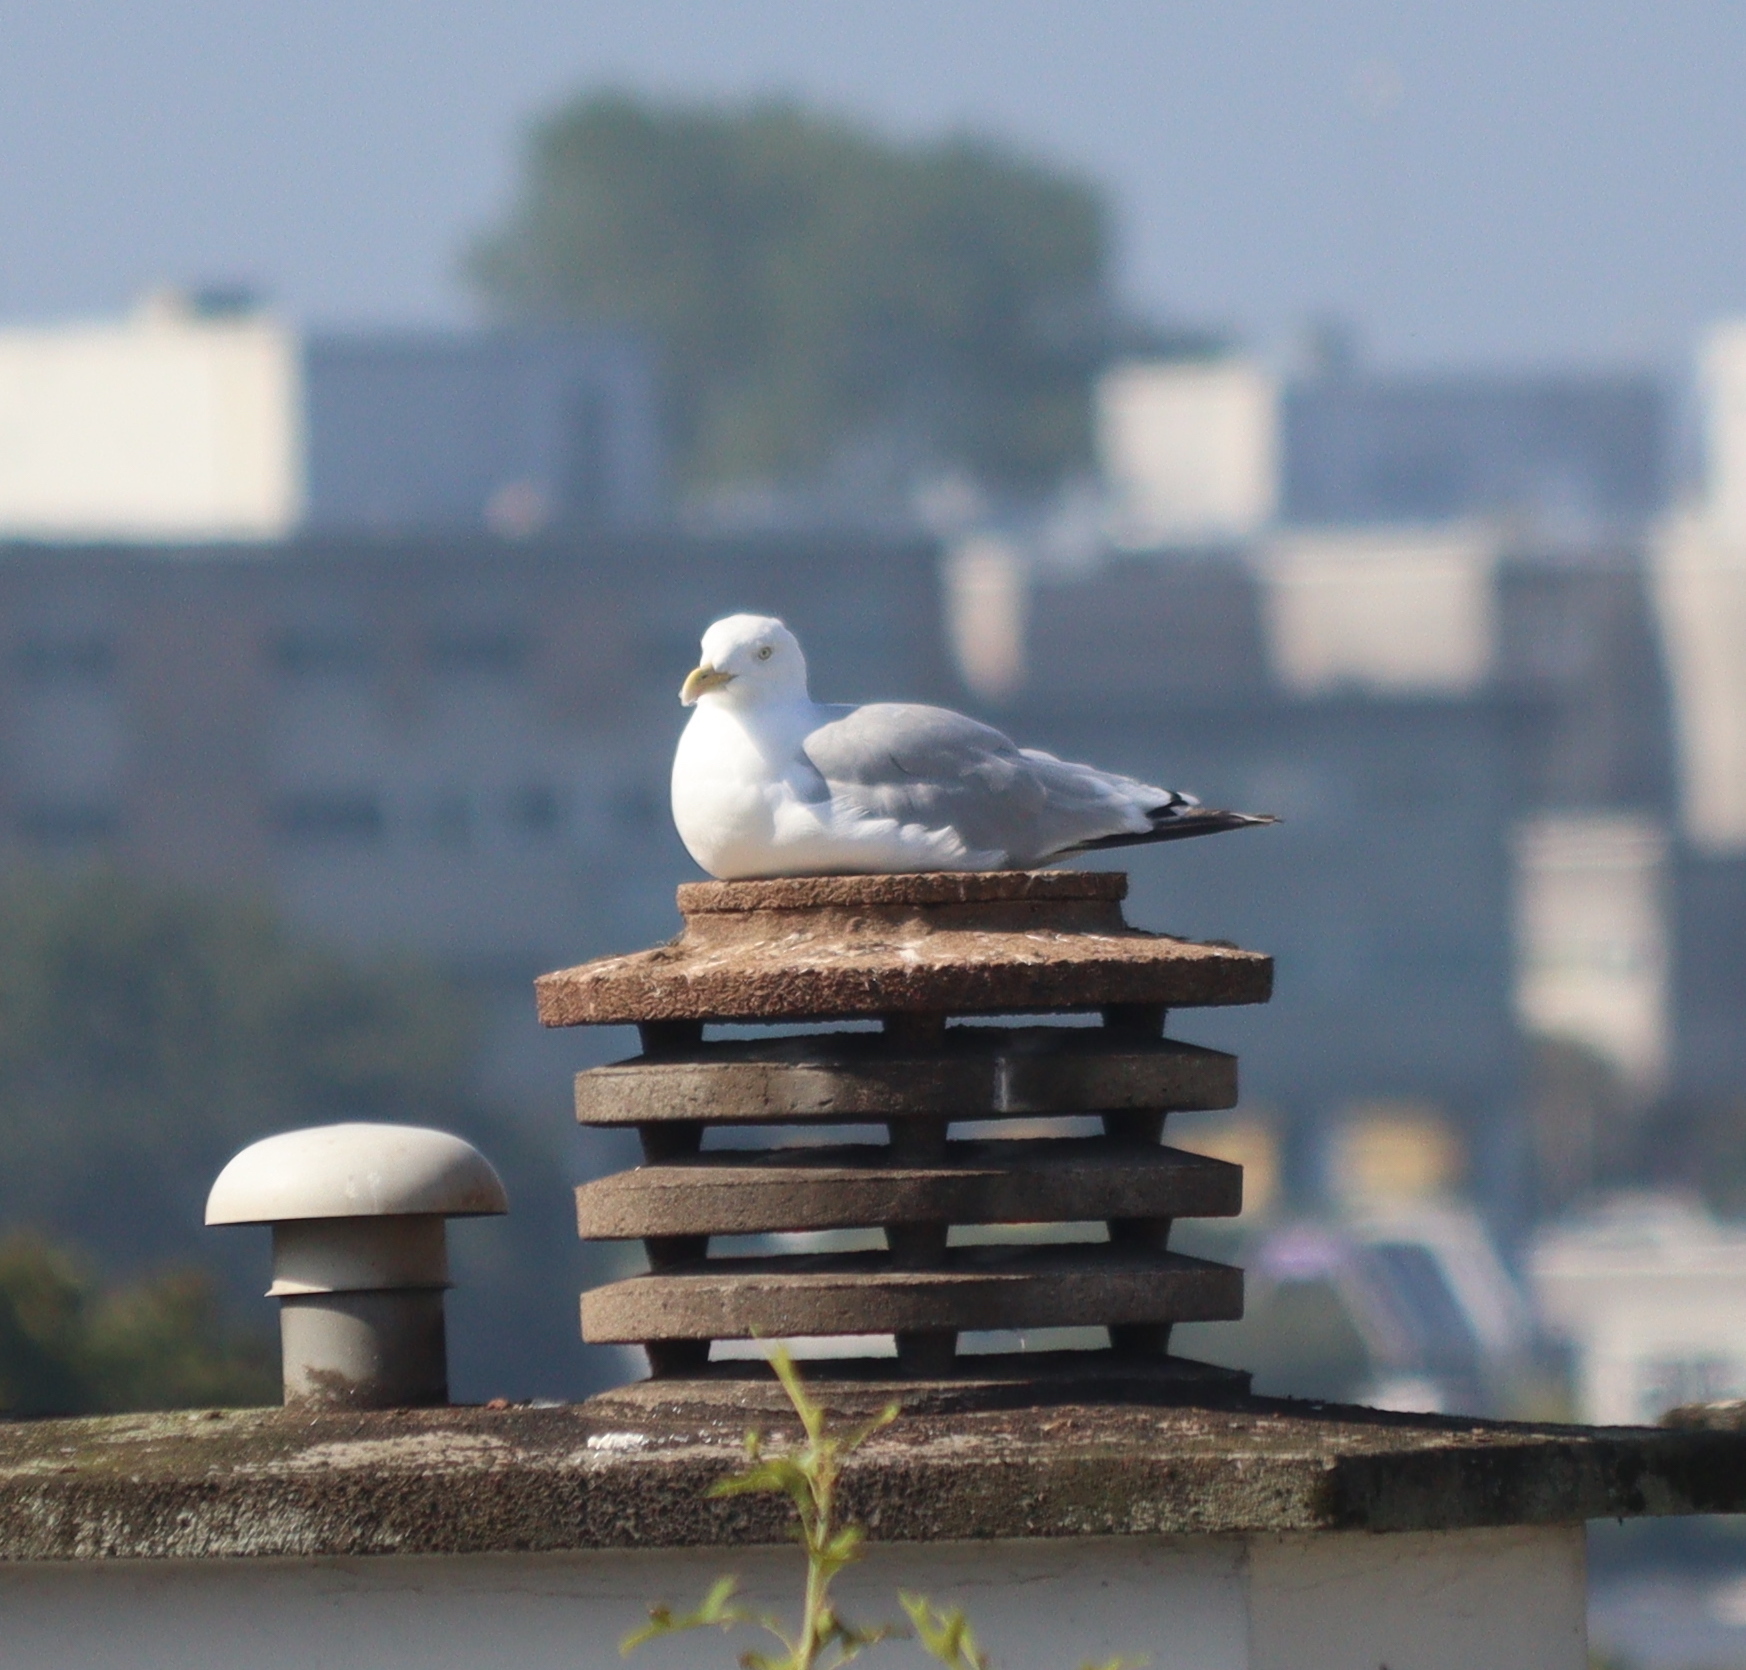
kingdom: Animalia
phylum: Chordata
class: Aves
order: Charadriiformes
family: Laridae
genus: Larus
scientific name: Larus argentatus
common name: Herring gull
